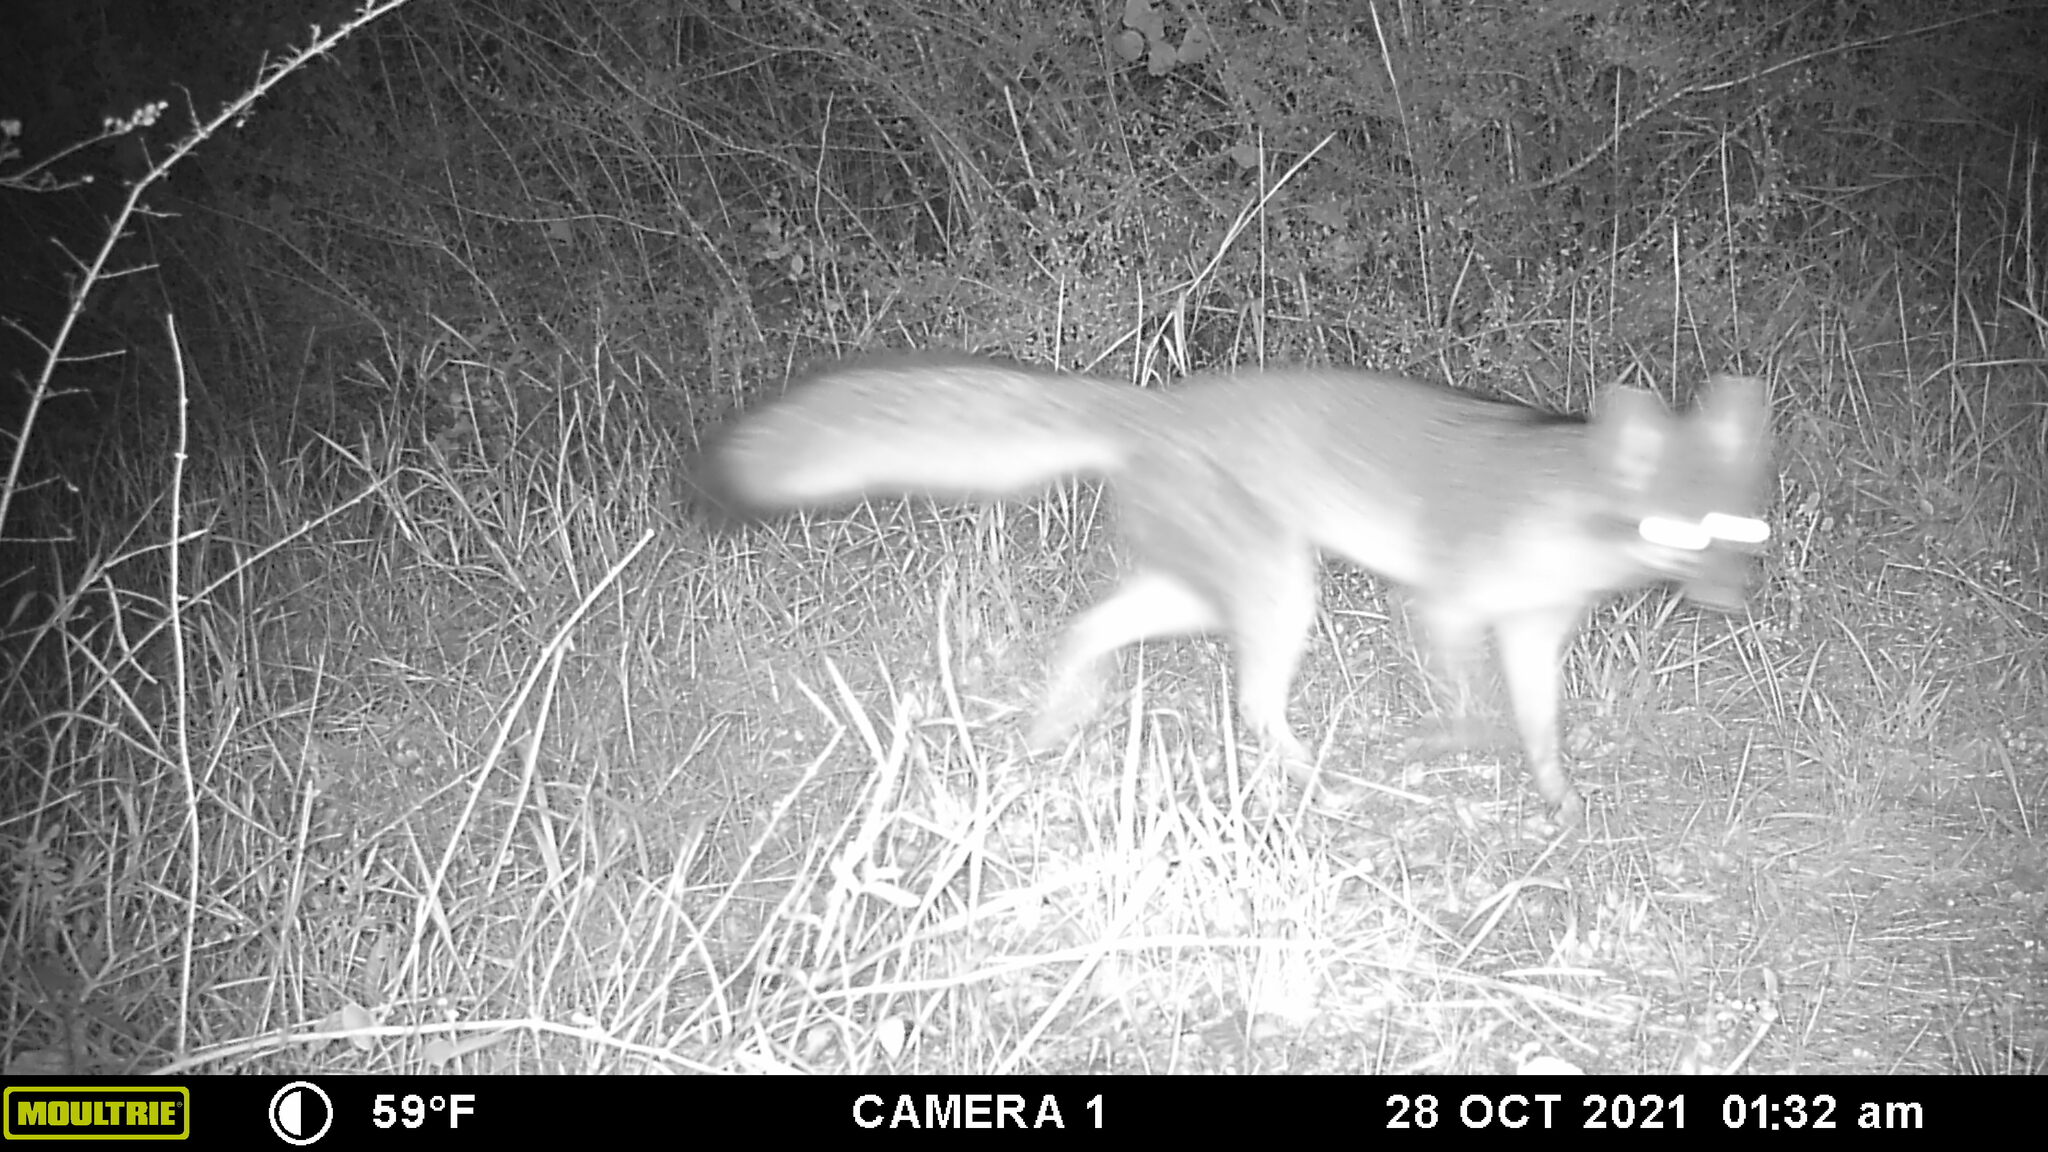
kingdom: Animalia
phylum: Chordata
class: Mammalia
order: Carnivora
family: Canidae
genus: Urocyon
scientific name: Urocyon cinereoargenteus
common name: Gray fox
